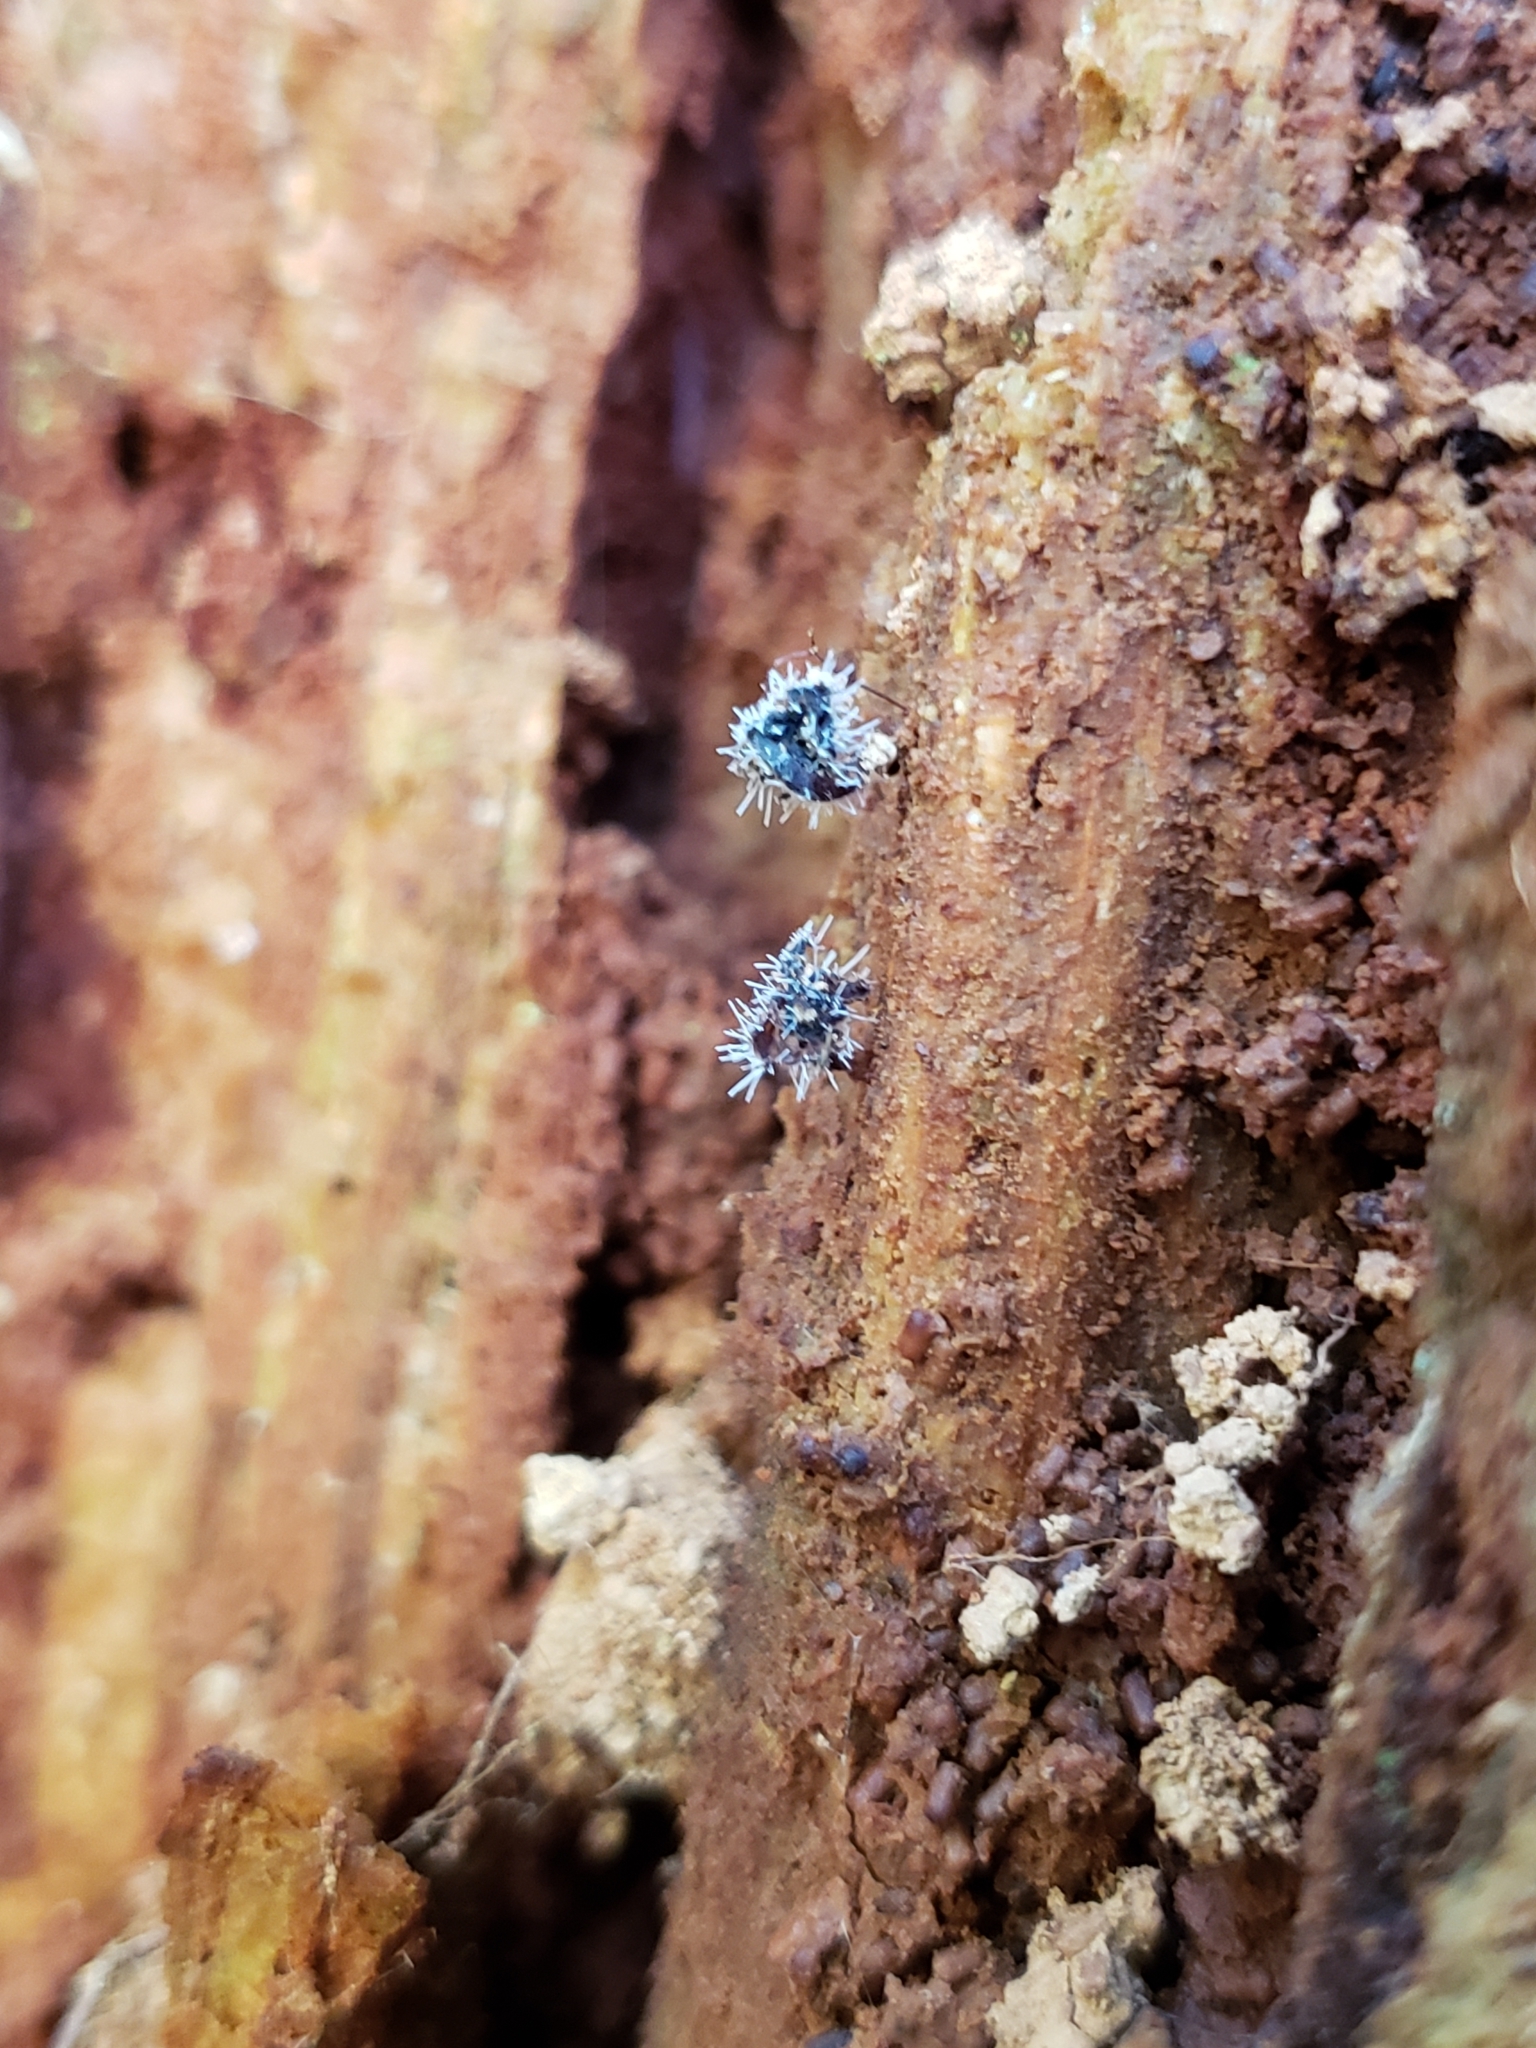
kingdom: Fungi
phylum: Ascomycota
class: Sordariomycetes
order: Hypocreales
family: Tilachlidiaceae
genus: Tilachlidium
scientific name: Tilachlidium brachiatum
